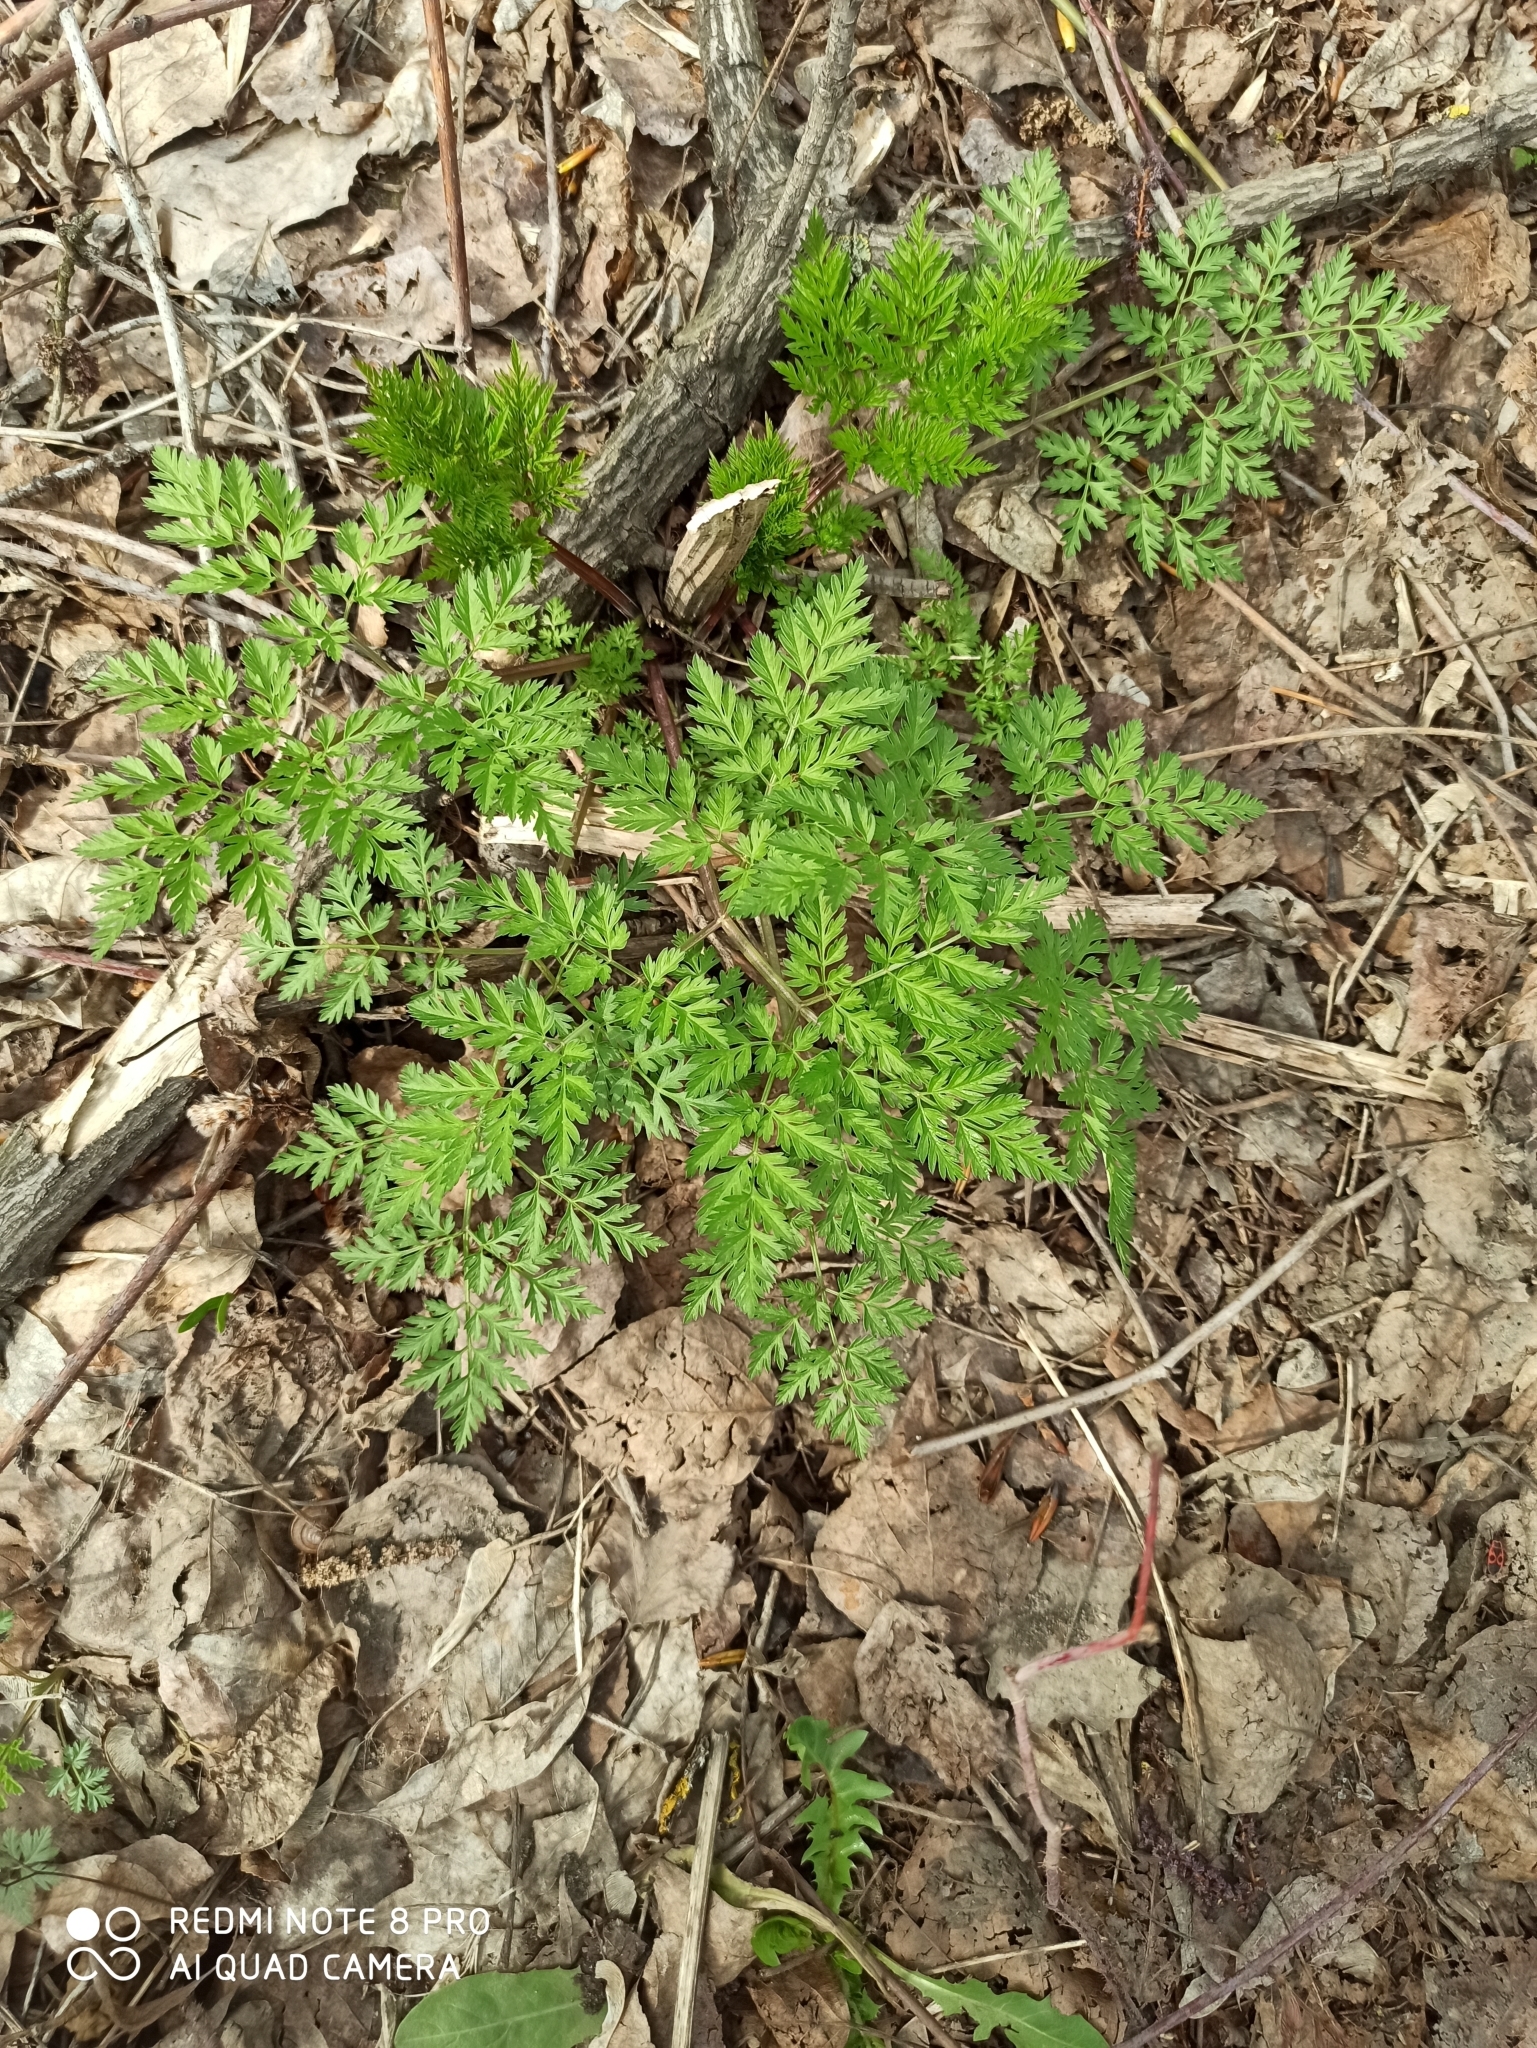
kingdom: Plantae
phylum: Tracheophyta
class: Magnoliopsida
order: Apiales
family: Apiaceae
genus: Anthriscus
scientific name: Anthriscus sylvestris
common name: Cow parsley
